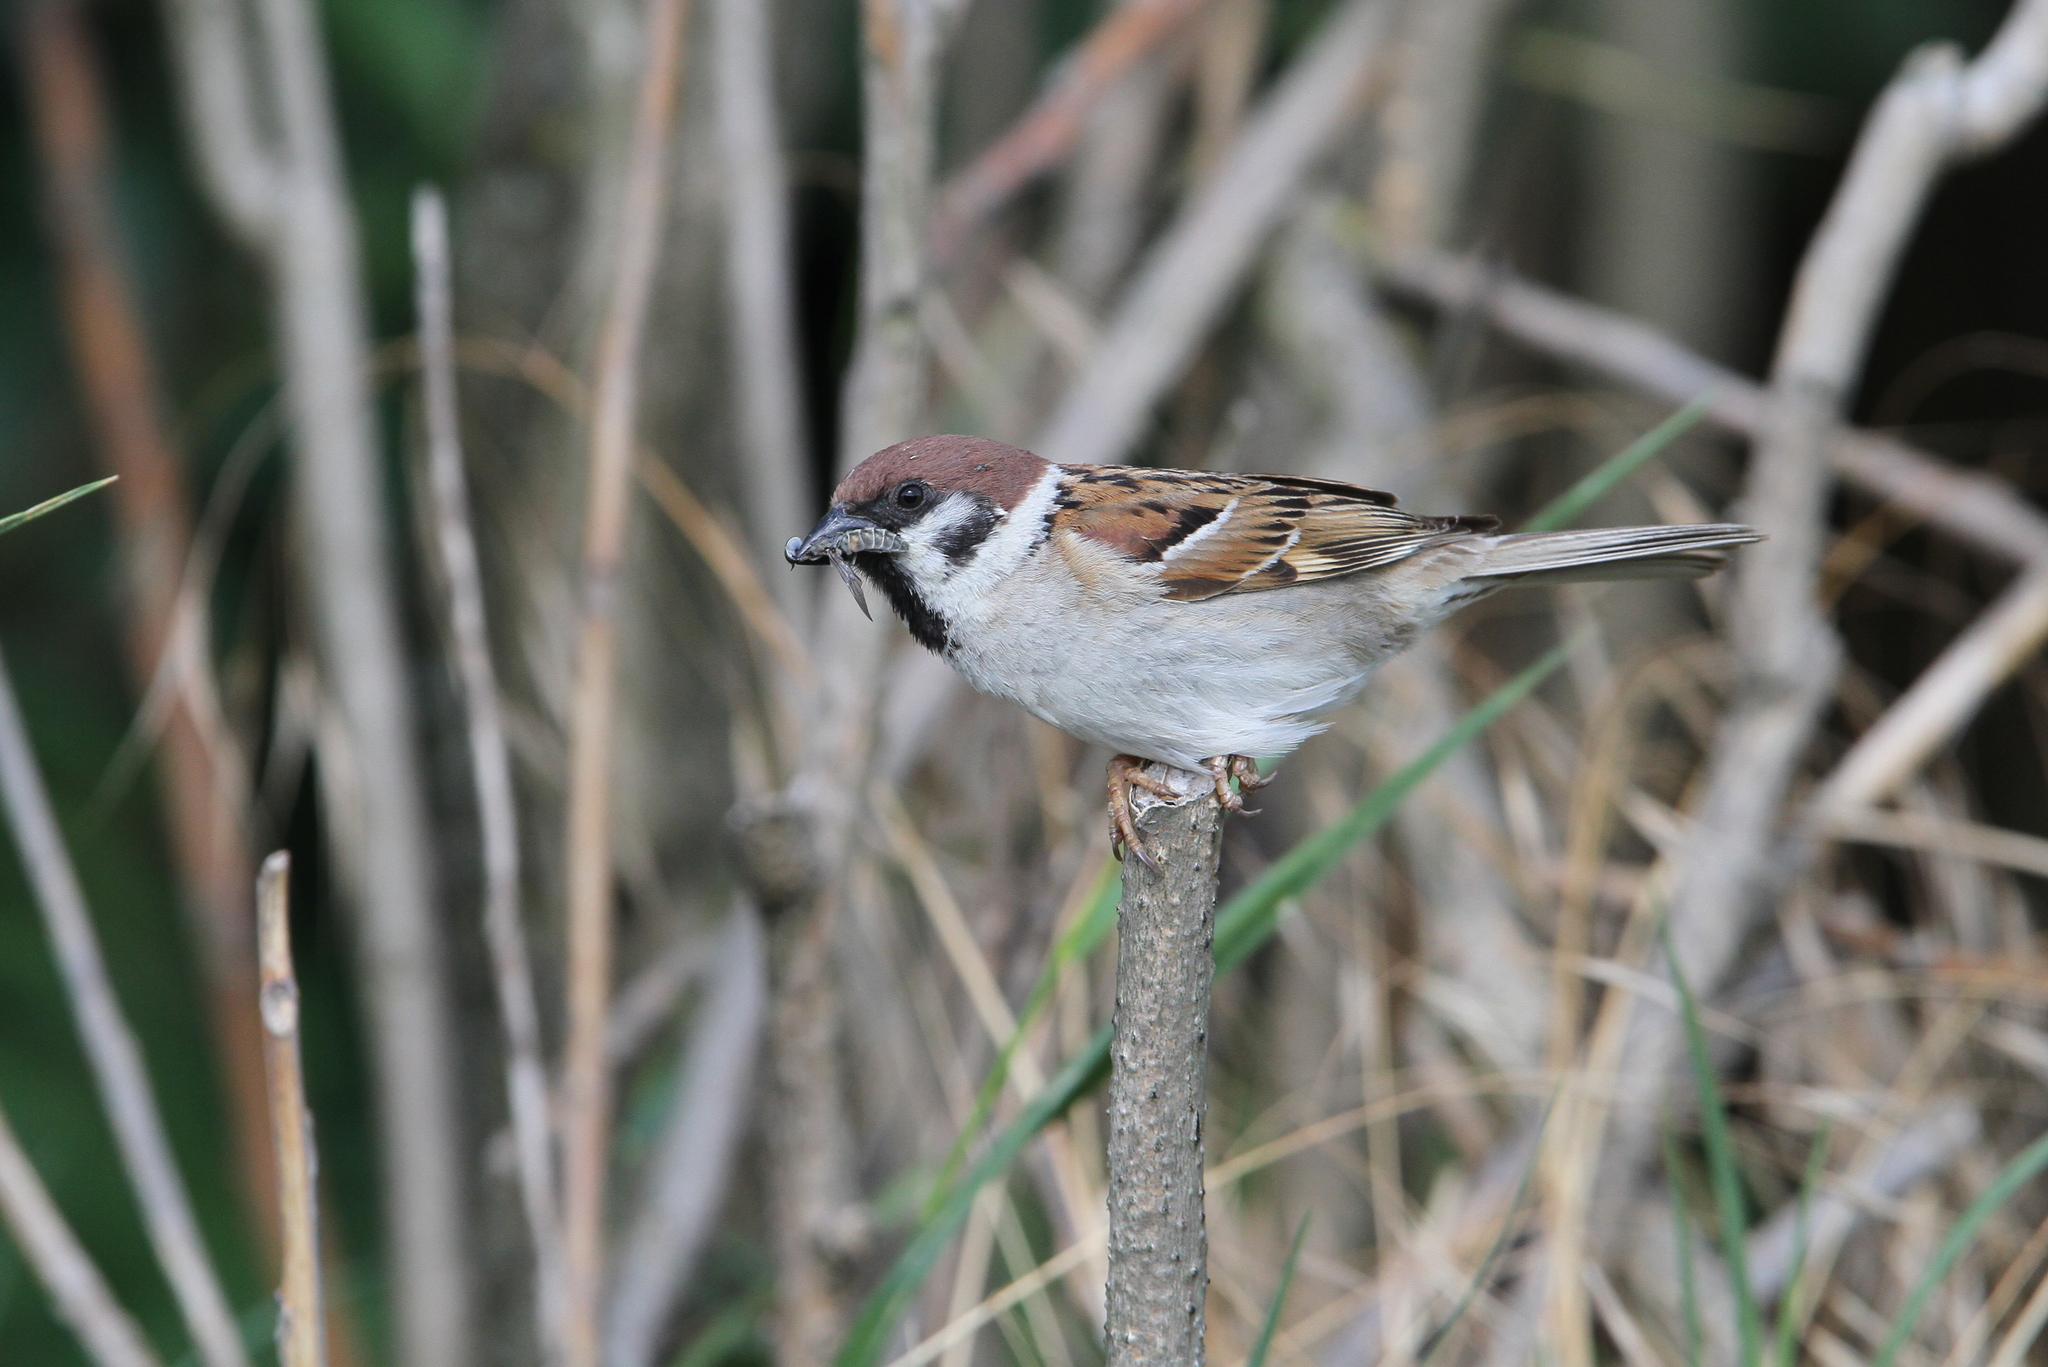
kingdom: Animalia
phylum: Chordata
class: Aves
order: Passeriformes
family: Passeridae
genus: Passer
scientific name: Passer montanus
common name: Eurasian tree sparrow
